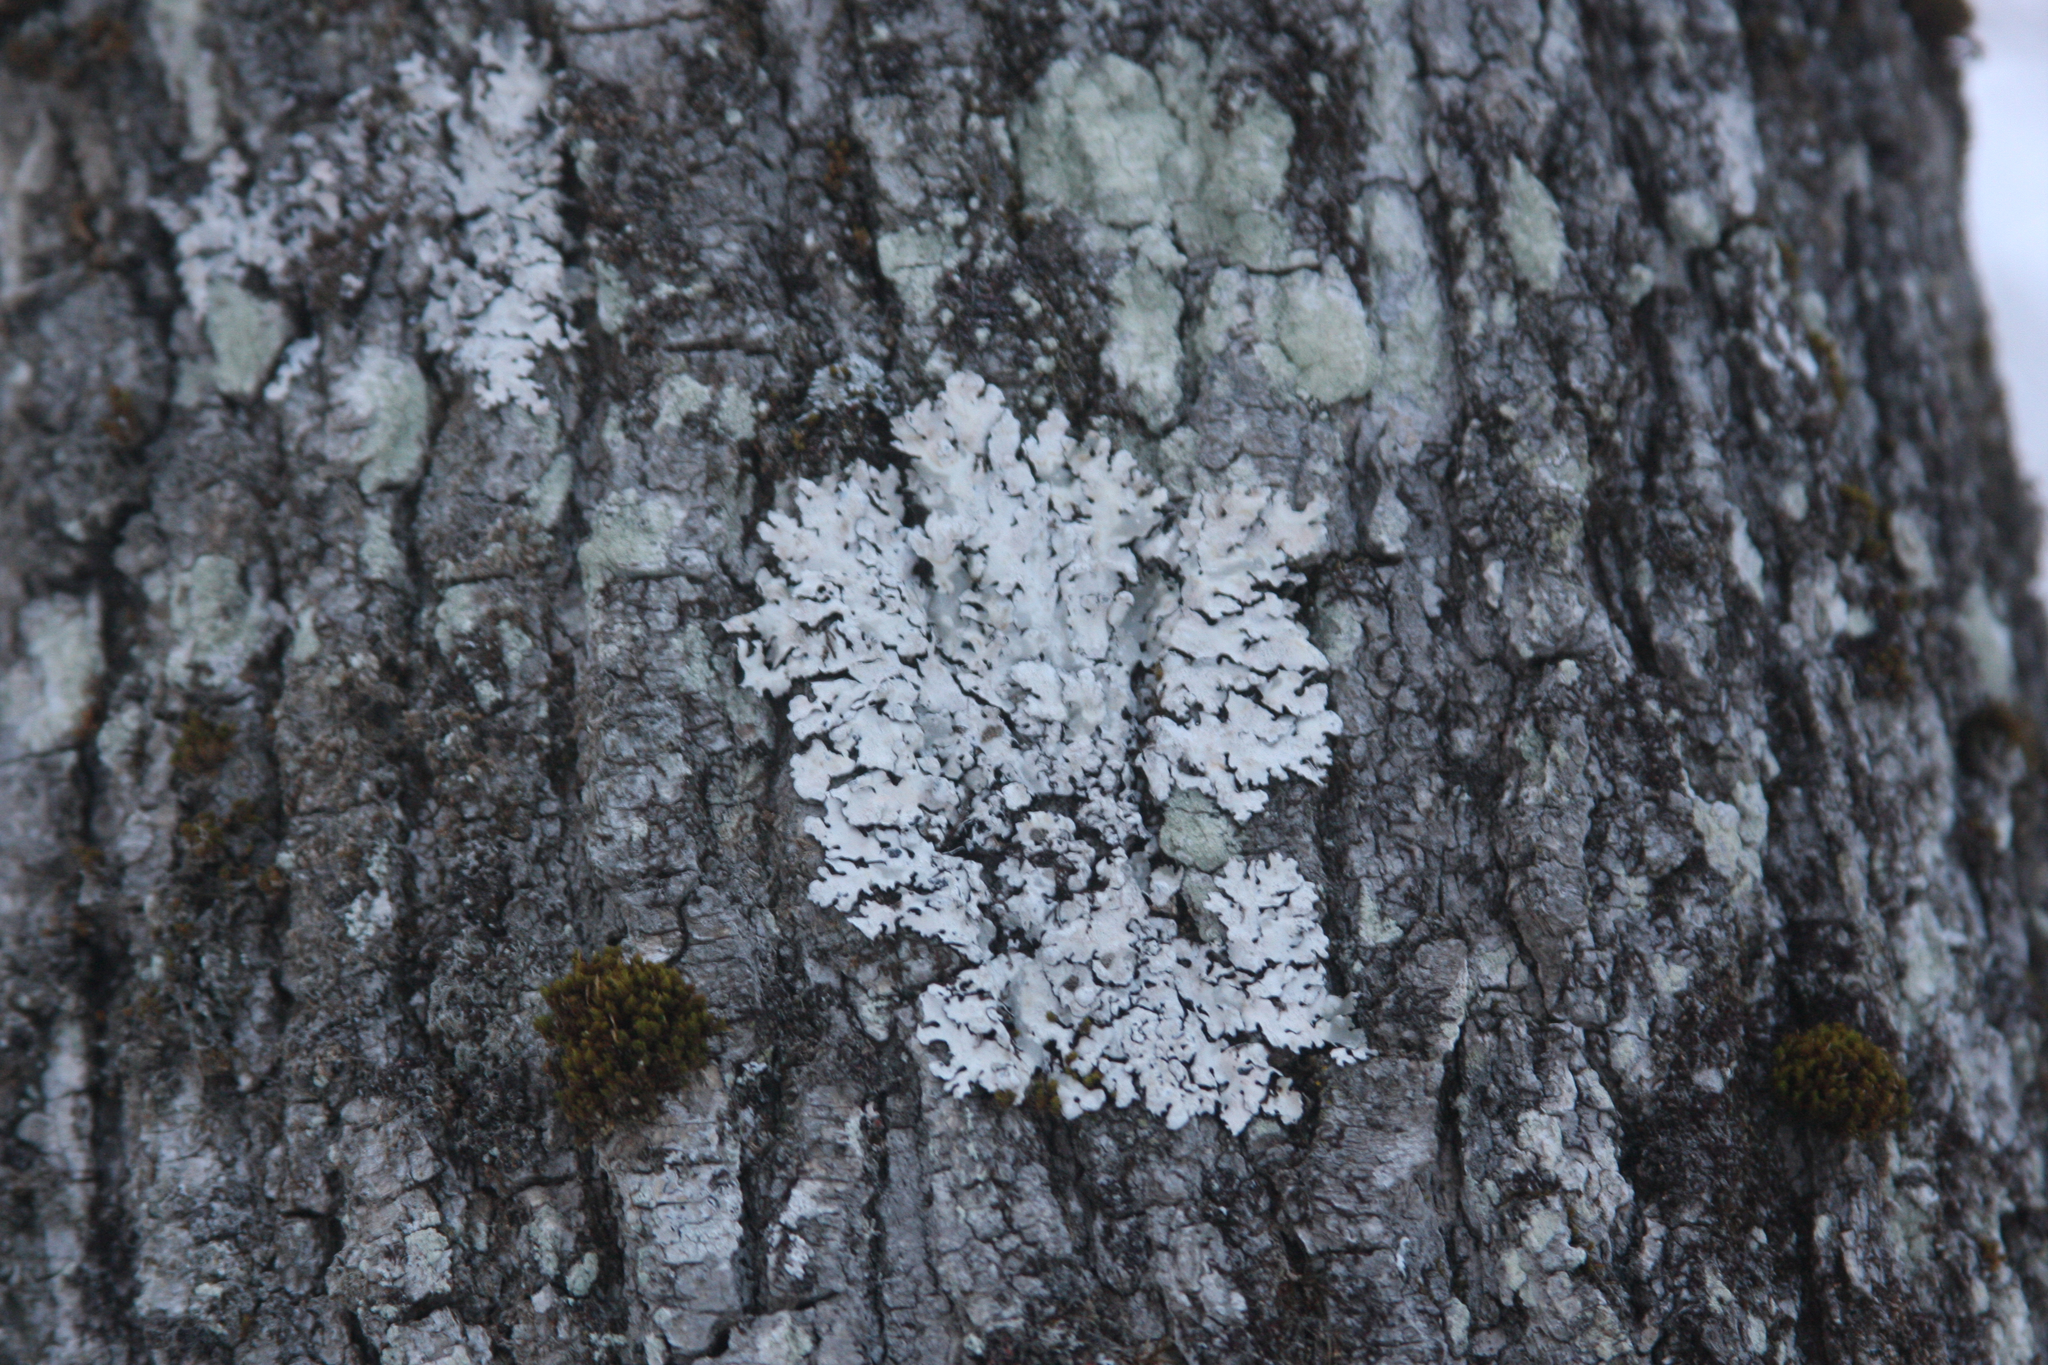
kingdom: Plantae
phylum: Bryophyta
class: Bryopsida
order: Orthotrichales
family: Orthotrichaceae
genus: Ulota
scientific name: Ulota crispa
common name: Crisped pincushion moss
